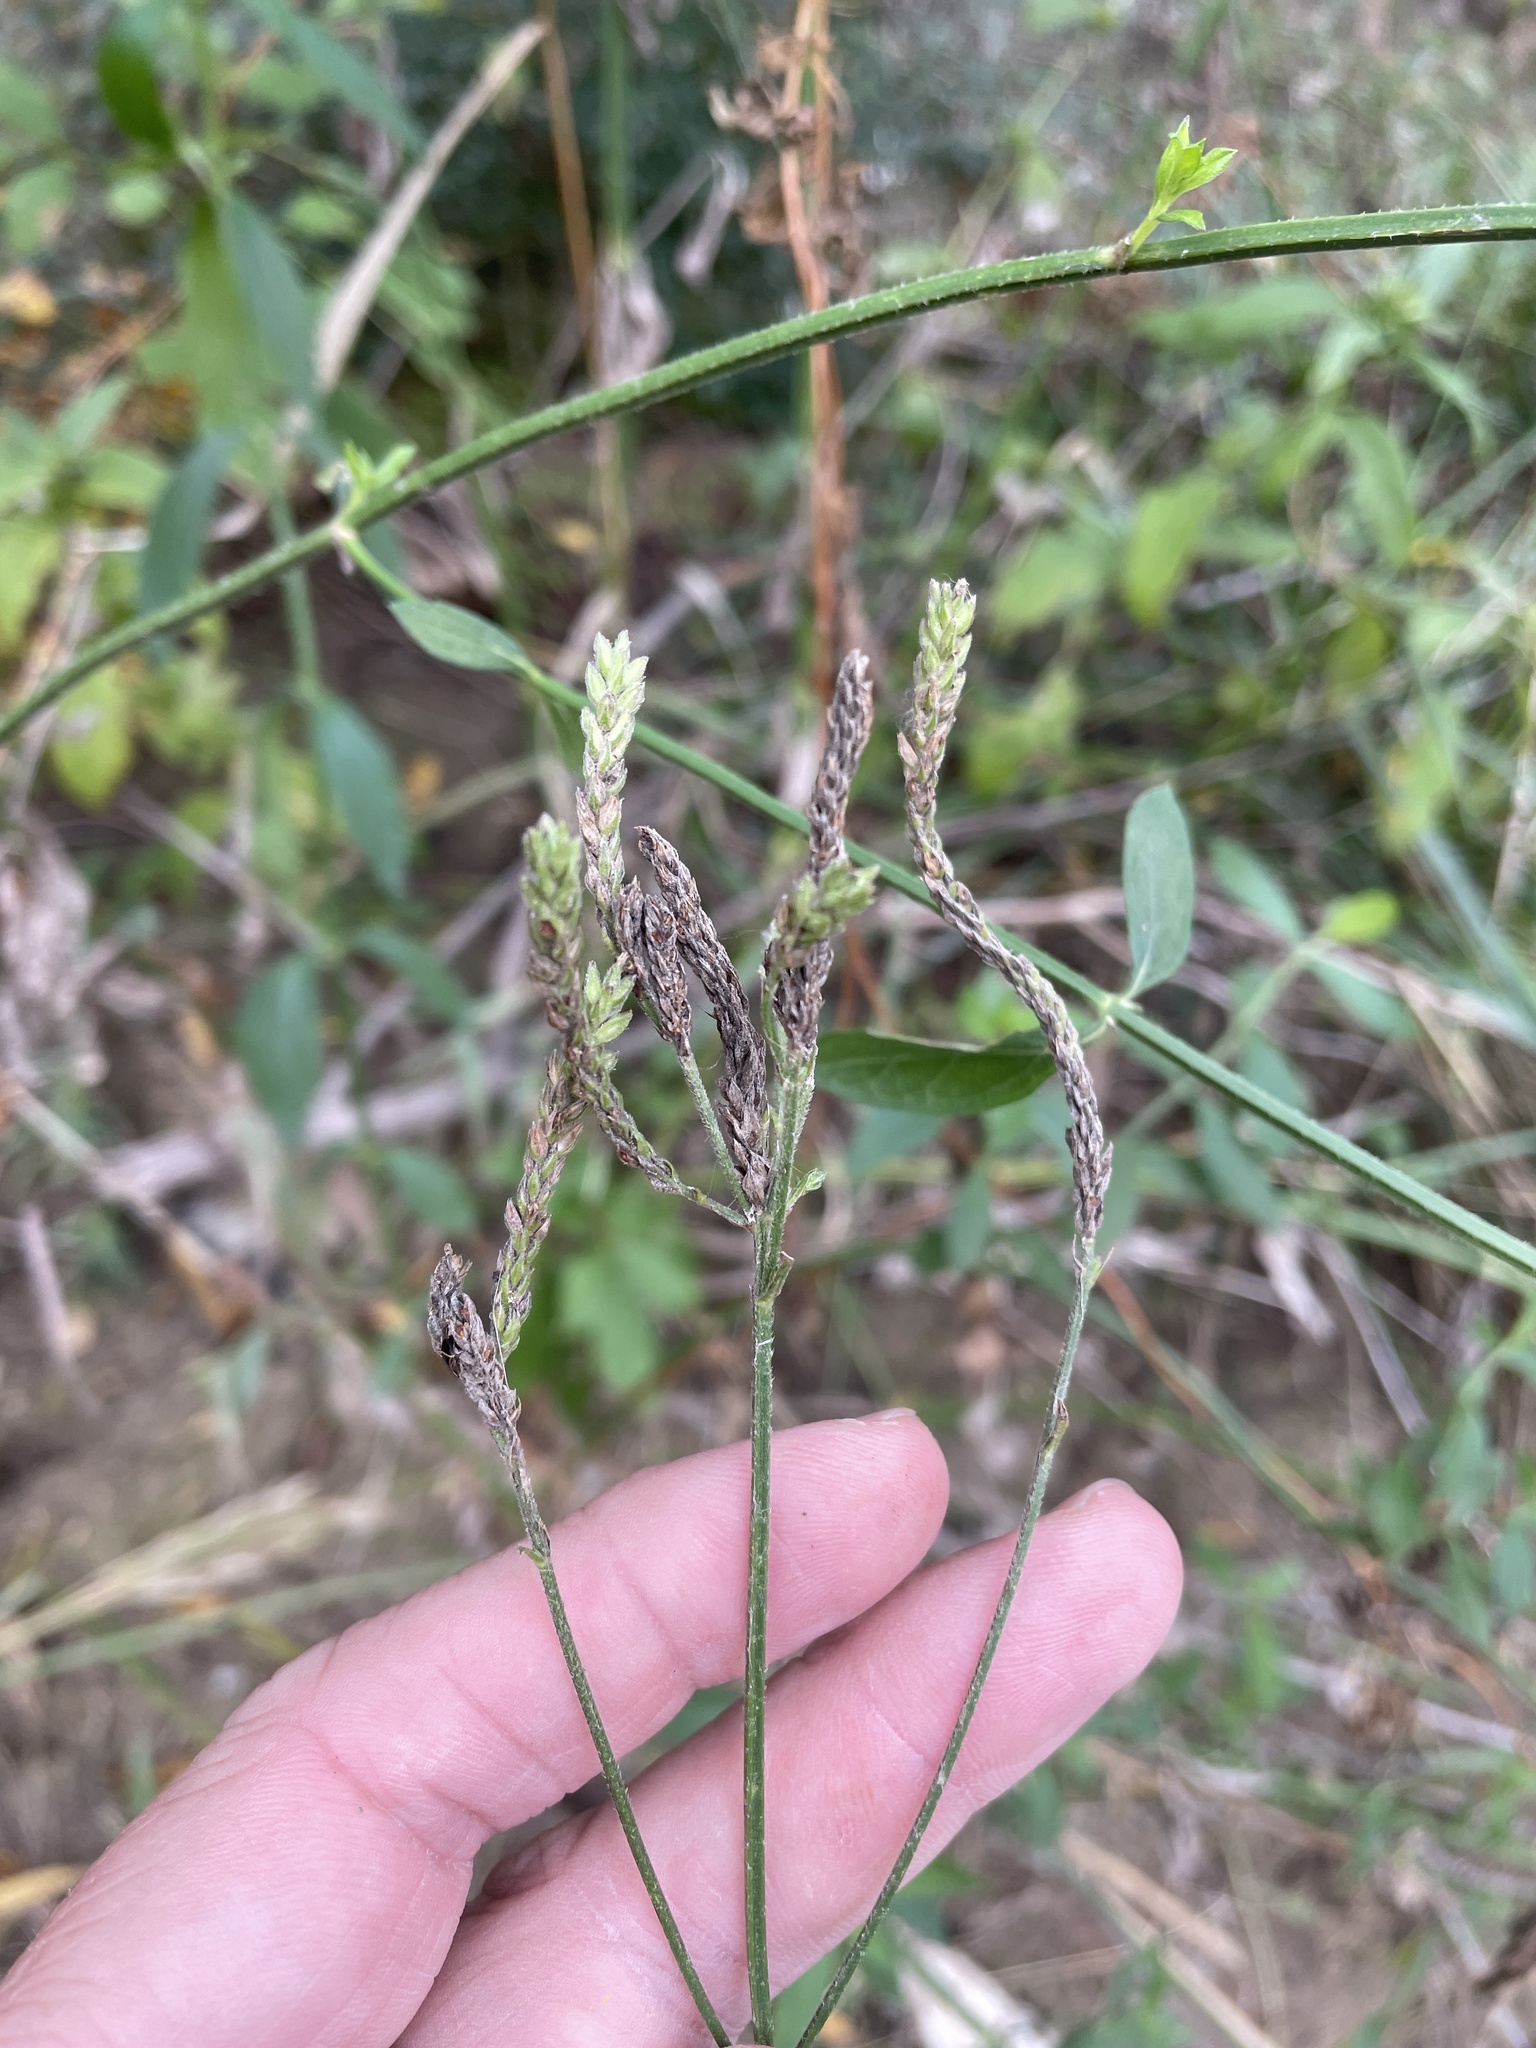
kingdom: Plantae
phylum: Tracheophyta
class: Magnoliopsida
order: Lamiales
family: Verbenaceae
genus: Verbena
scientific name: Verbena brasiliensis
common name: Brazilian vervain
